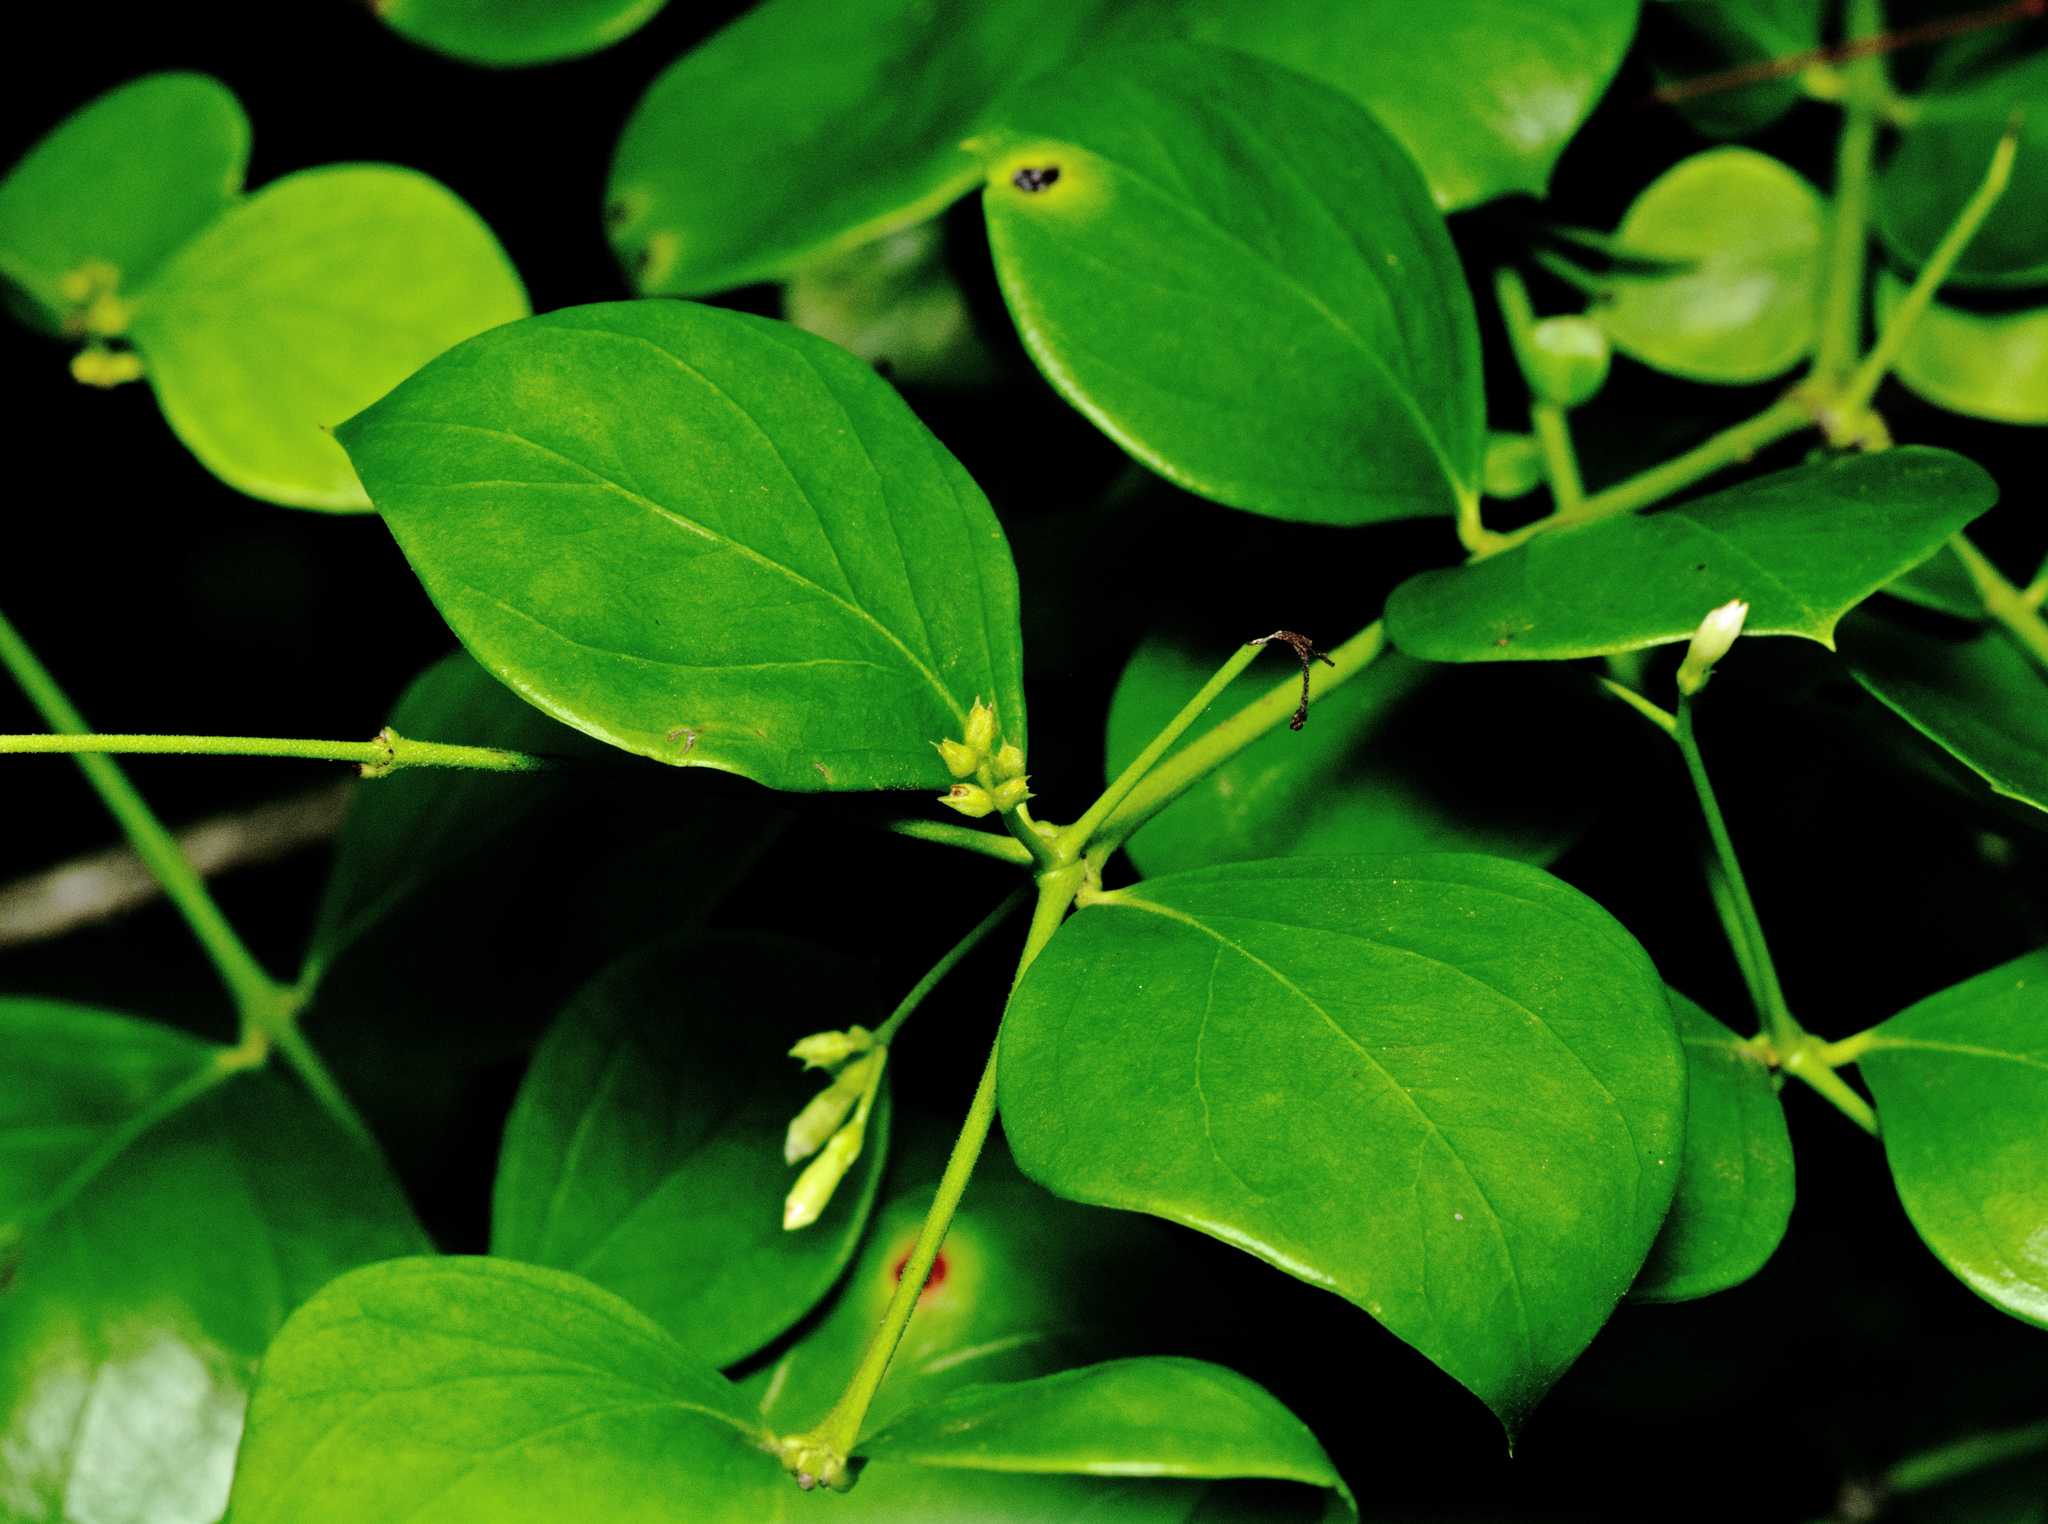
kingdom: Plantae
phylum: Tracheophyta
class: Magnoliopsida
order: Gentianales
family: Apocynaceae
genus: Carissa
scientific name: Carissa ovata
